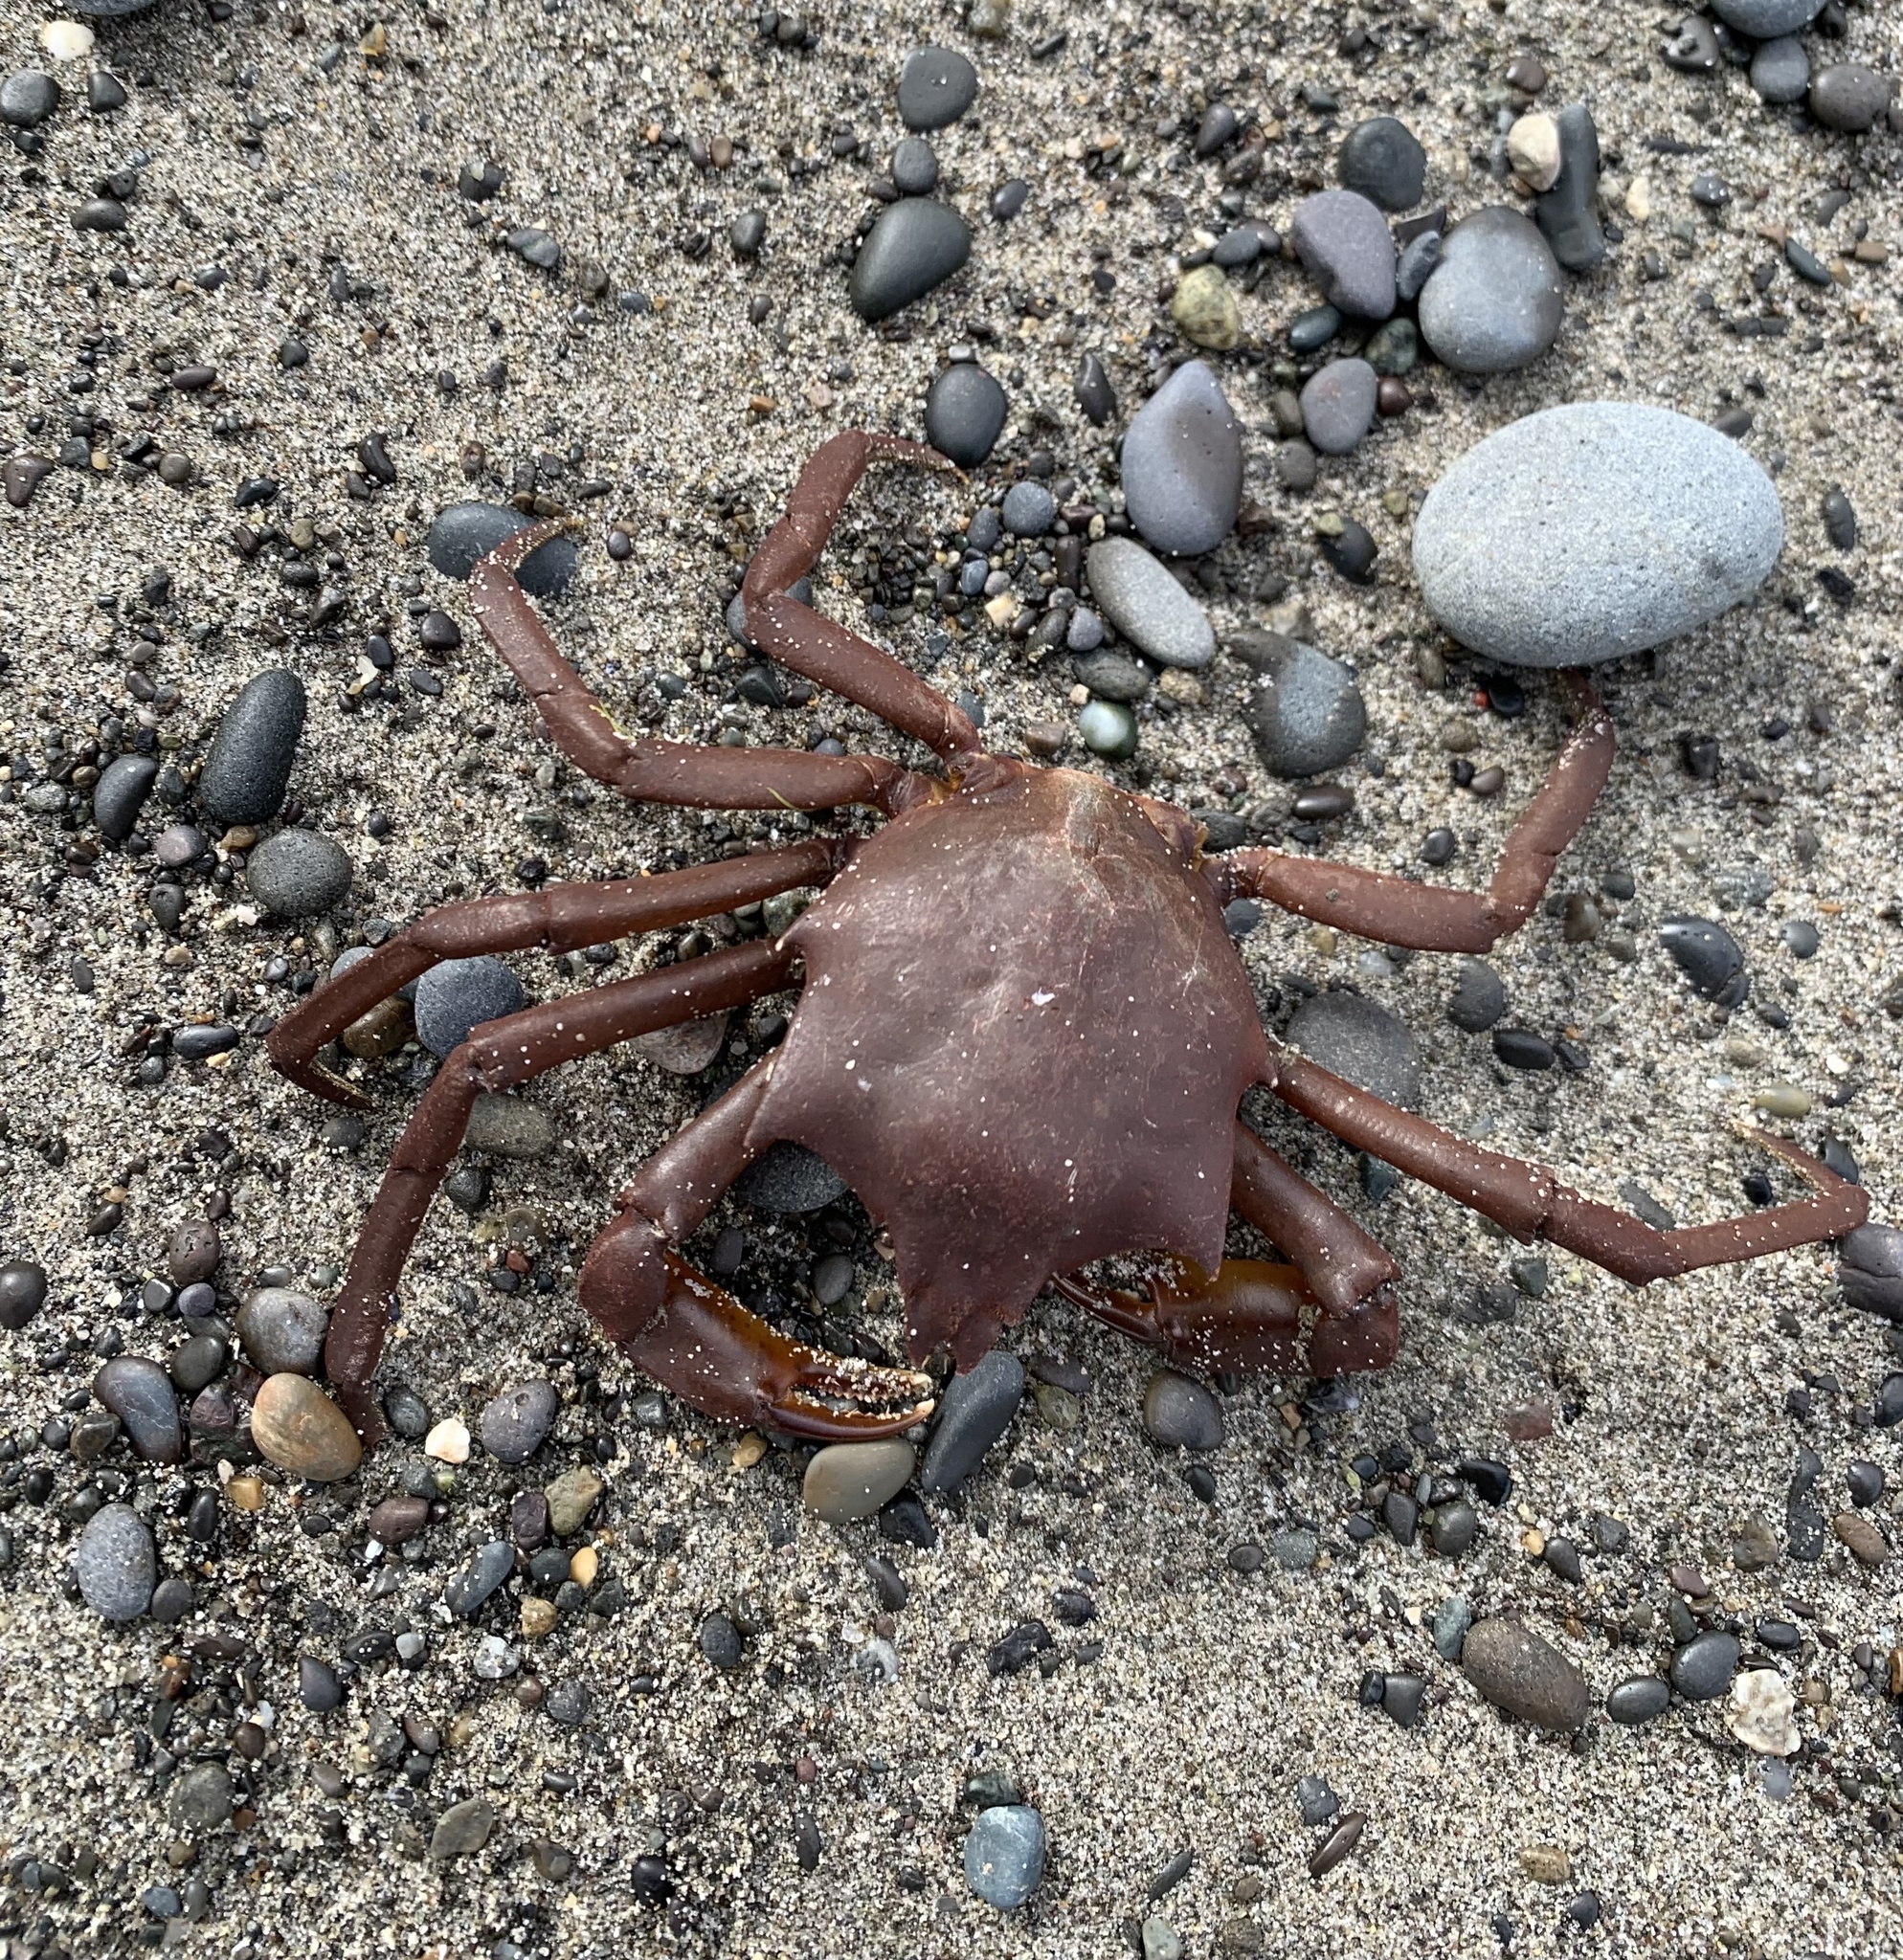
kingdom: Animalia
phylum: Arthropoda
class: Malacostraca
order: Decapoda
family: Epialtidae
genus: Pugettia
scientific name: Pugettia producta
